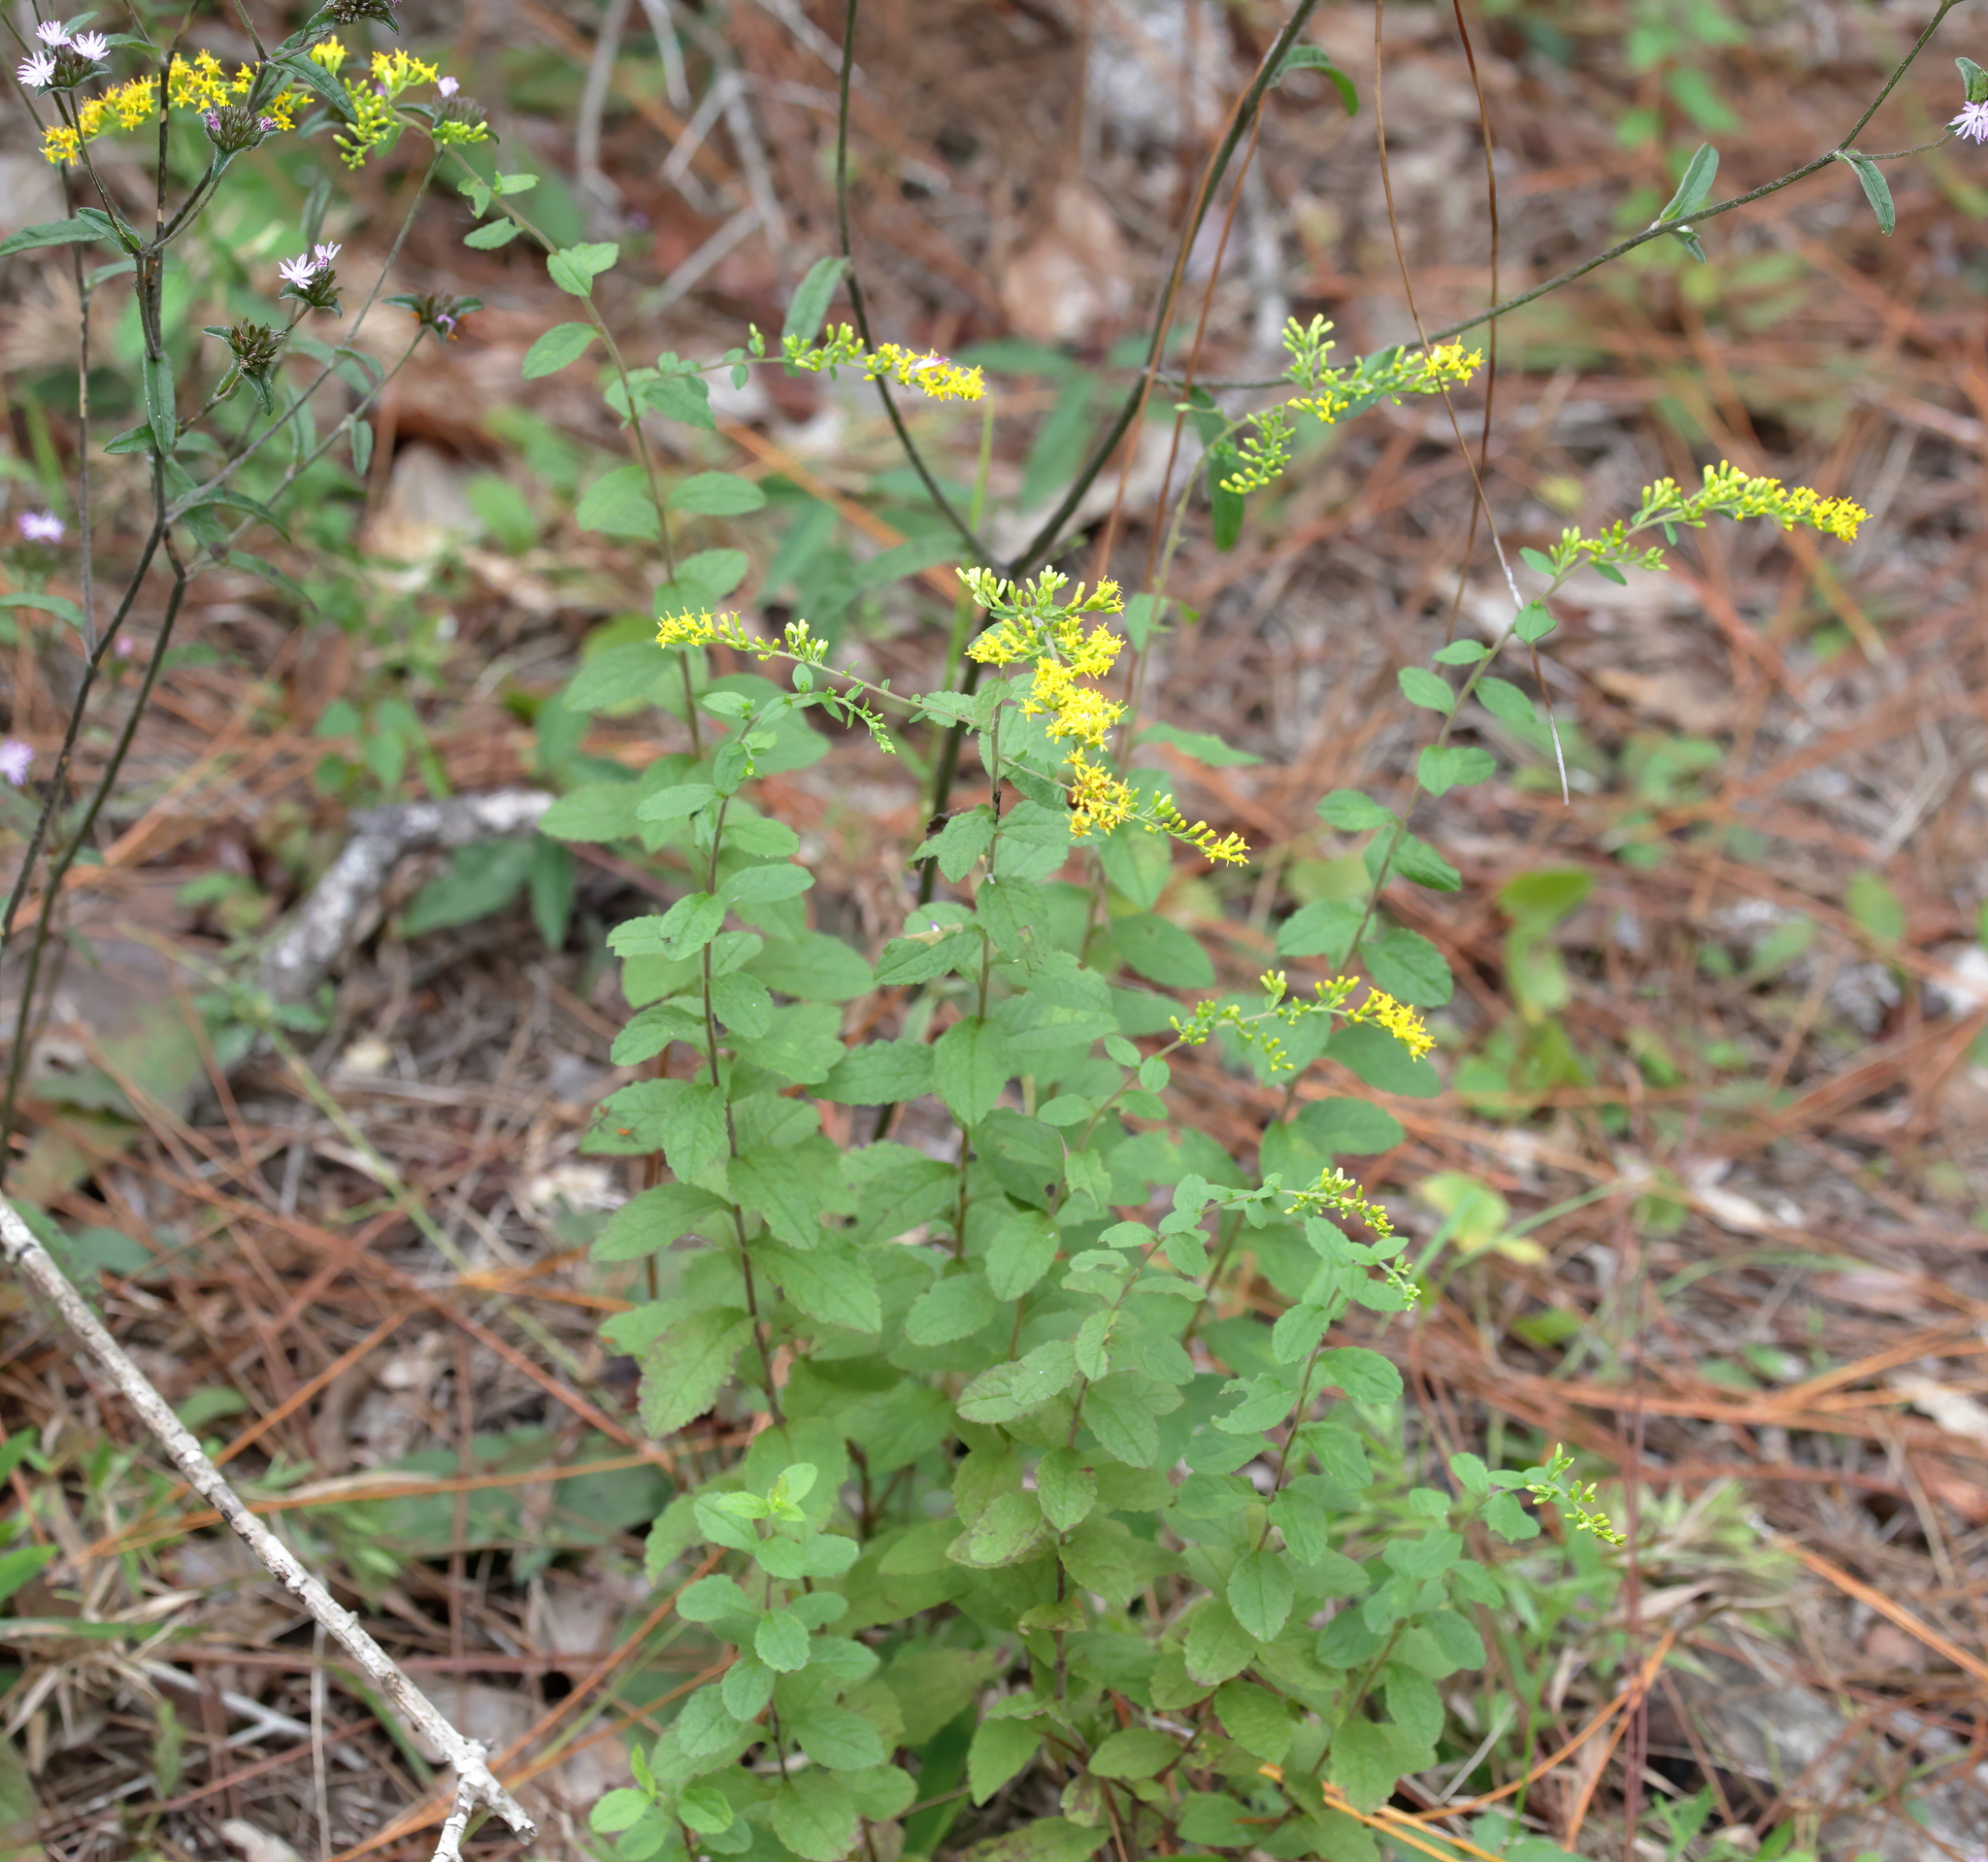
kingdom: Plantae
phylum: Tracheophyta
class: Magnoliopsida
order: Asterales
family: Asteraceae
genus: Solidago
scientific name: Solidago rugosa
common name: Rough-stemmed goldenrod
